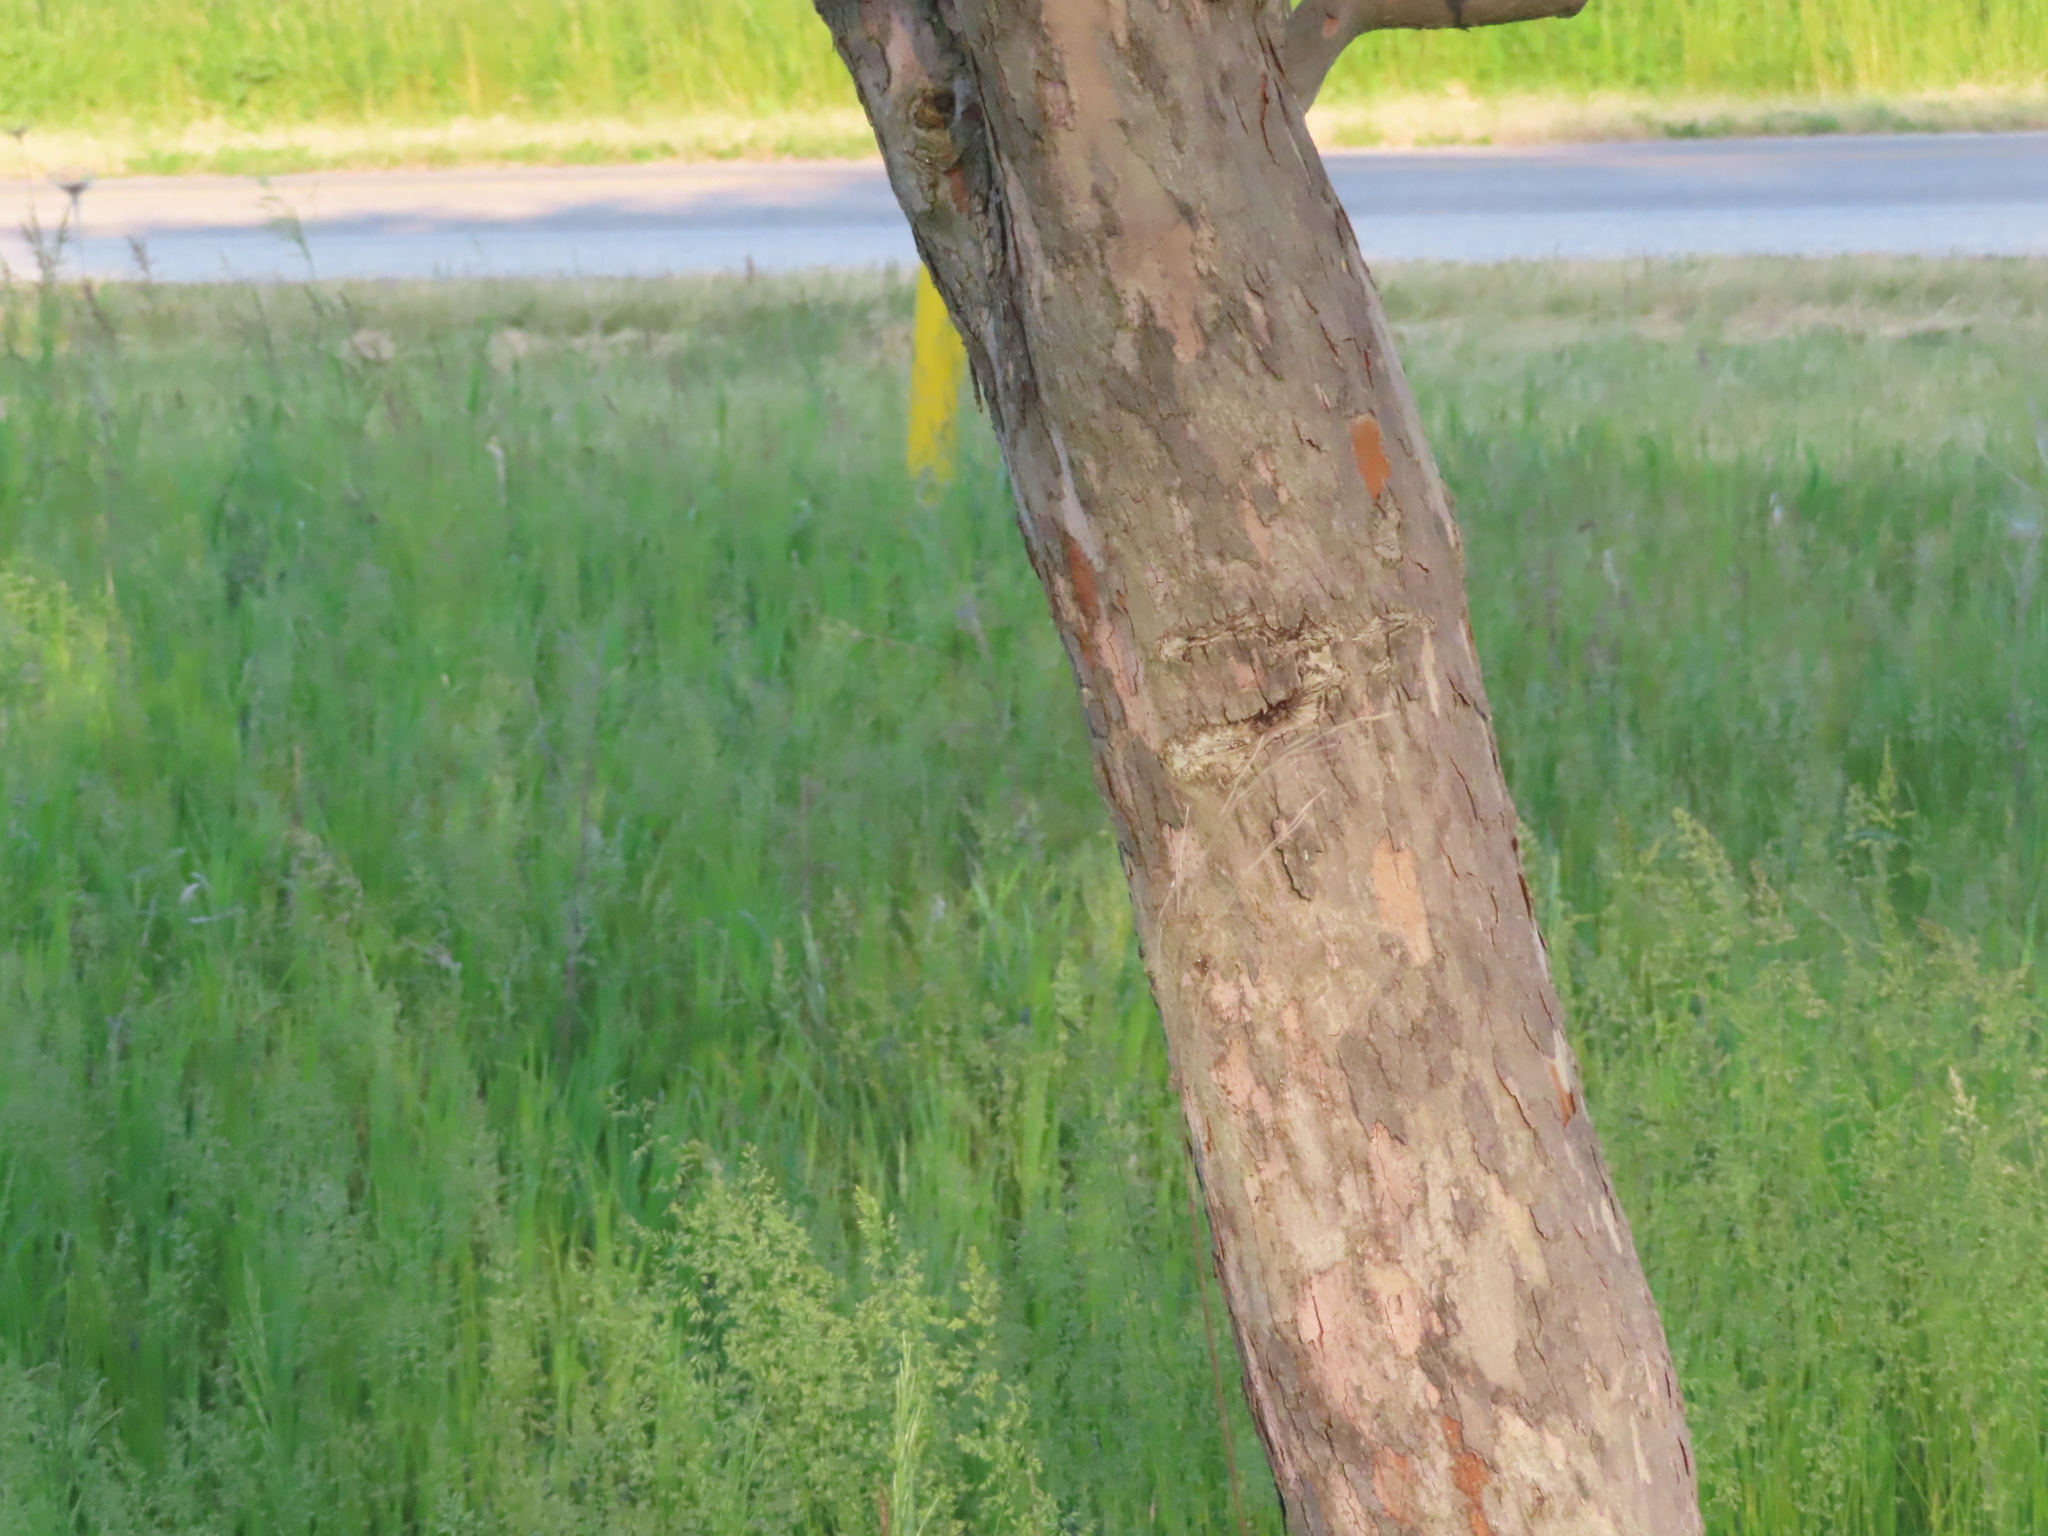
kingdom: Animalia
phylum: Arthropoda
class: Insecta
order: Lepidoptera
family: Coleophoridae
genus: Coleophora
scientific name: Coleophora spinella
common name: Apple & plum case-bearer
